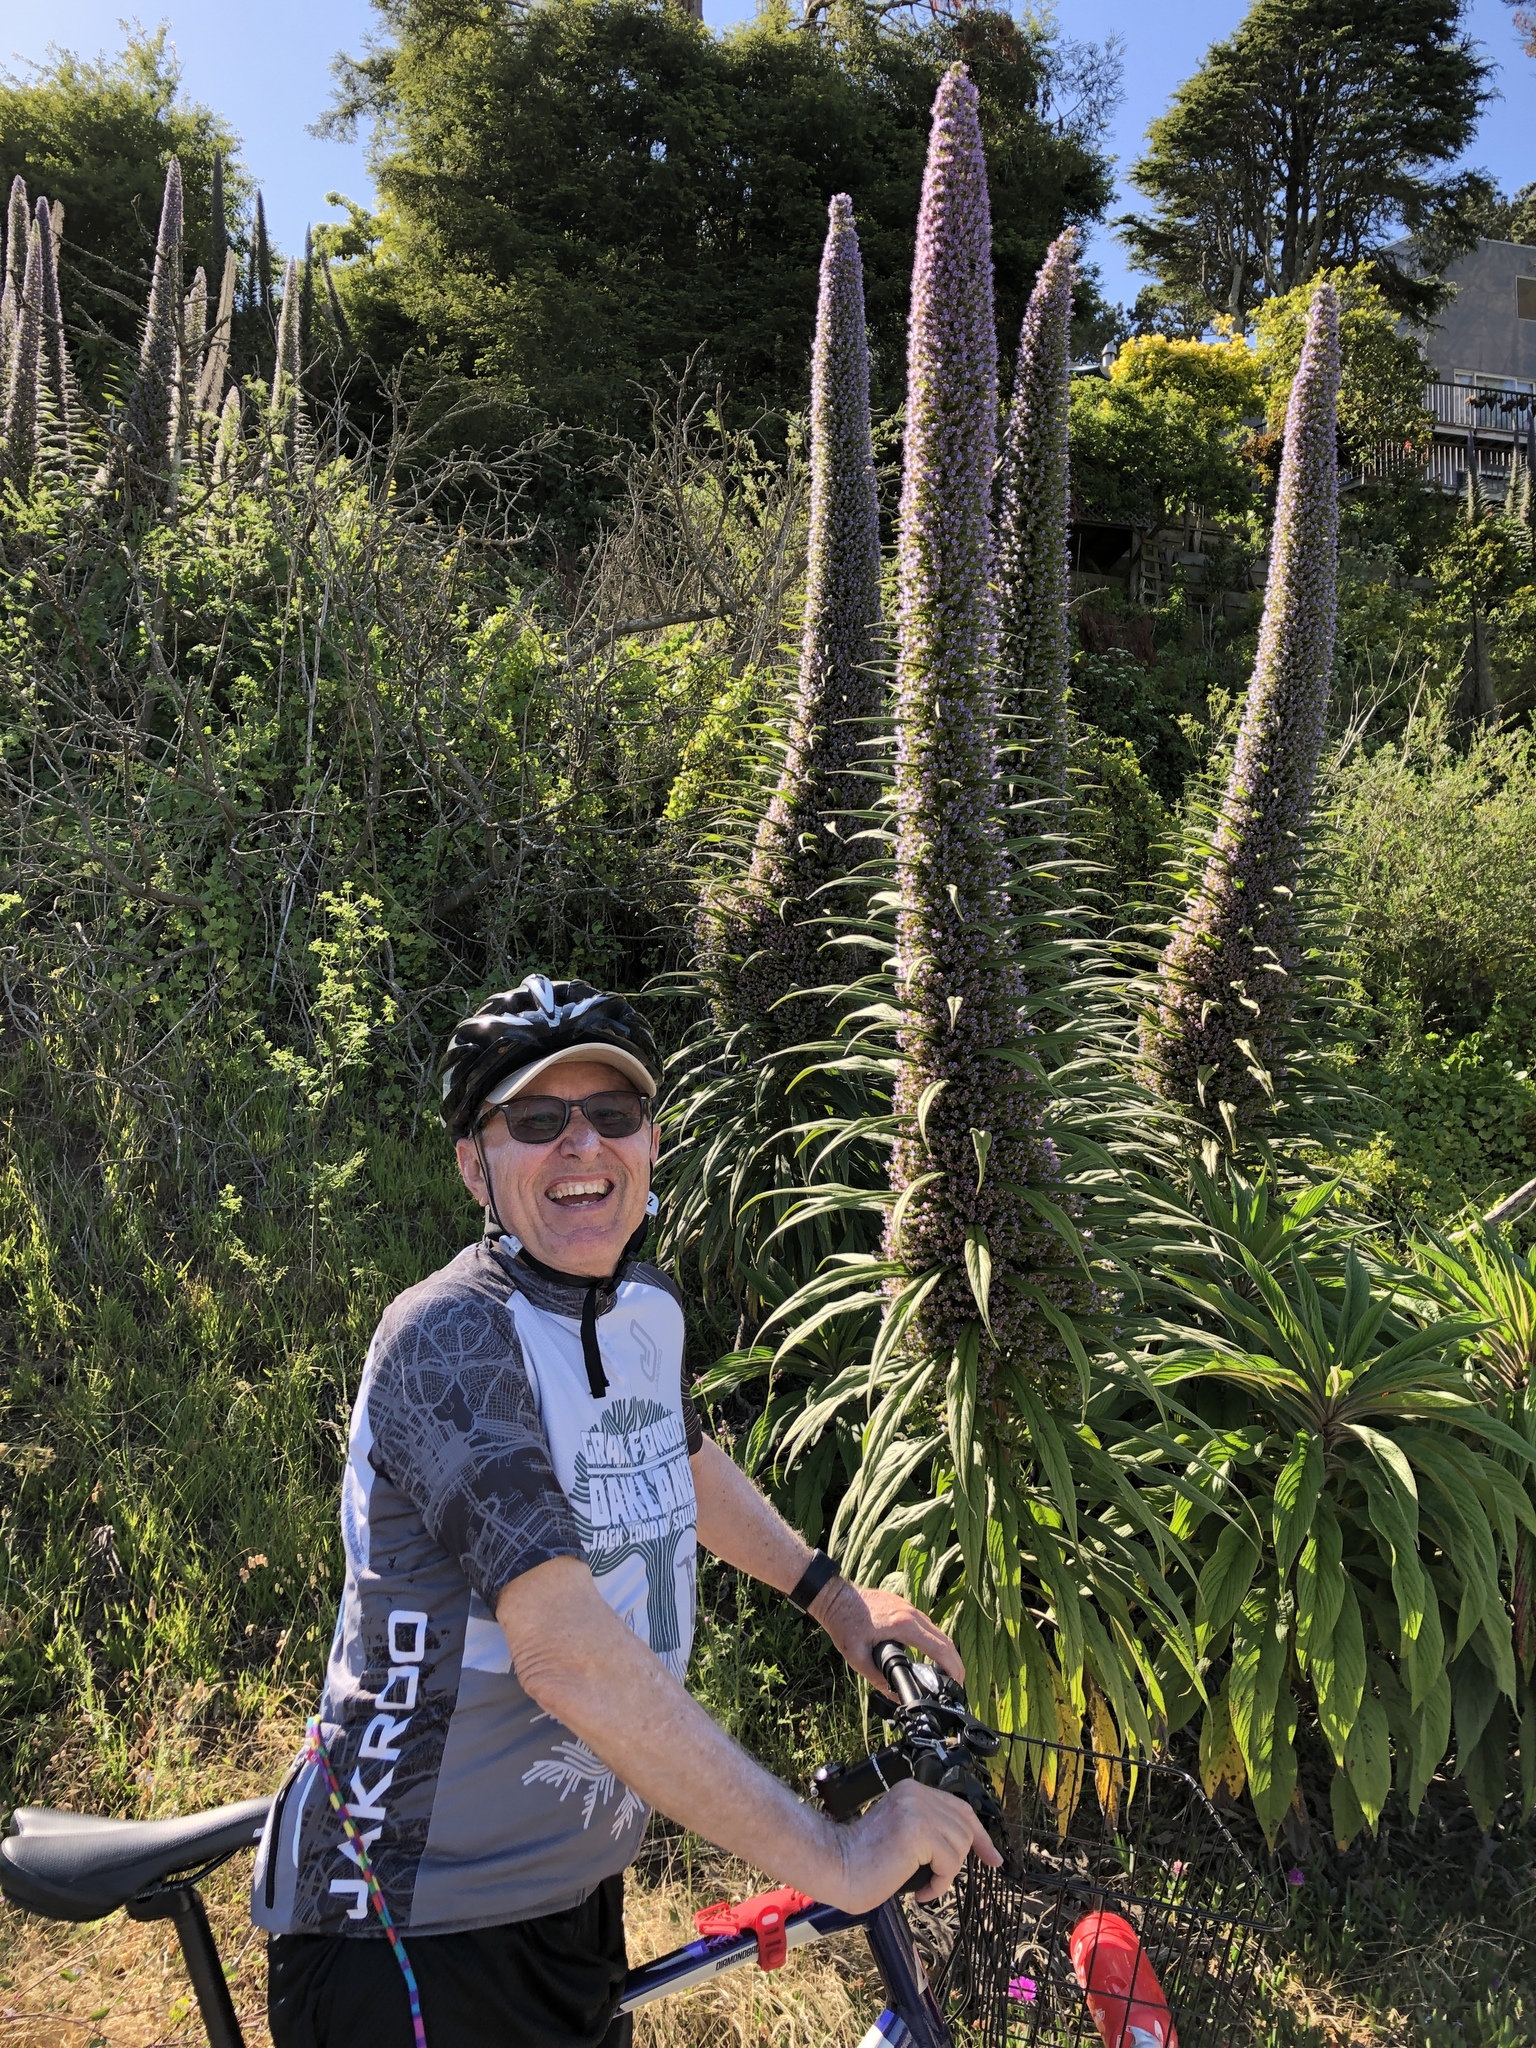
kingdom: Plantae
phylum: Tracheophyta
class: Magnoliopsida
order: Boraginales
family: Boraginaceae
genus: Echium
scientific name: Echium pininana
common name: Giant viper's-bugloss
